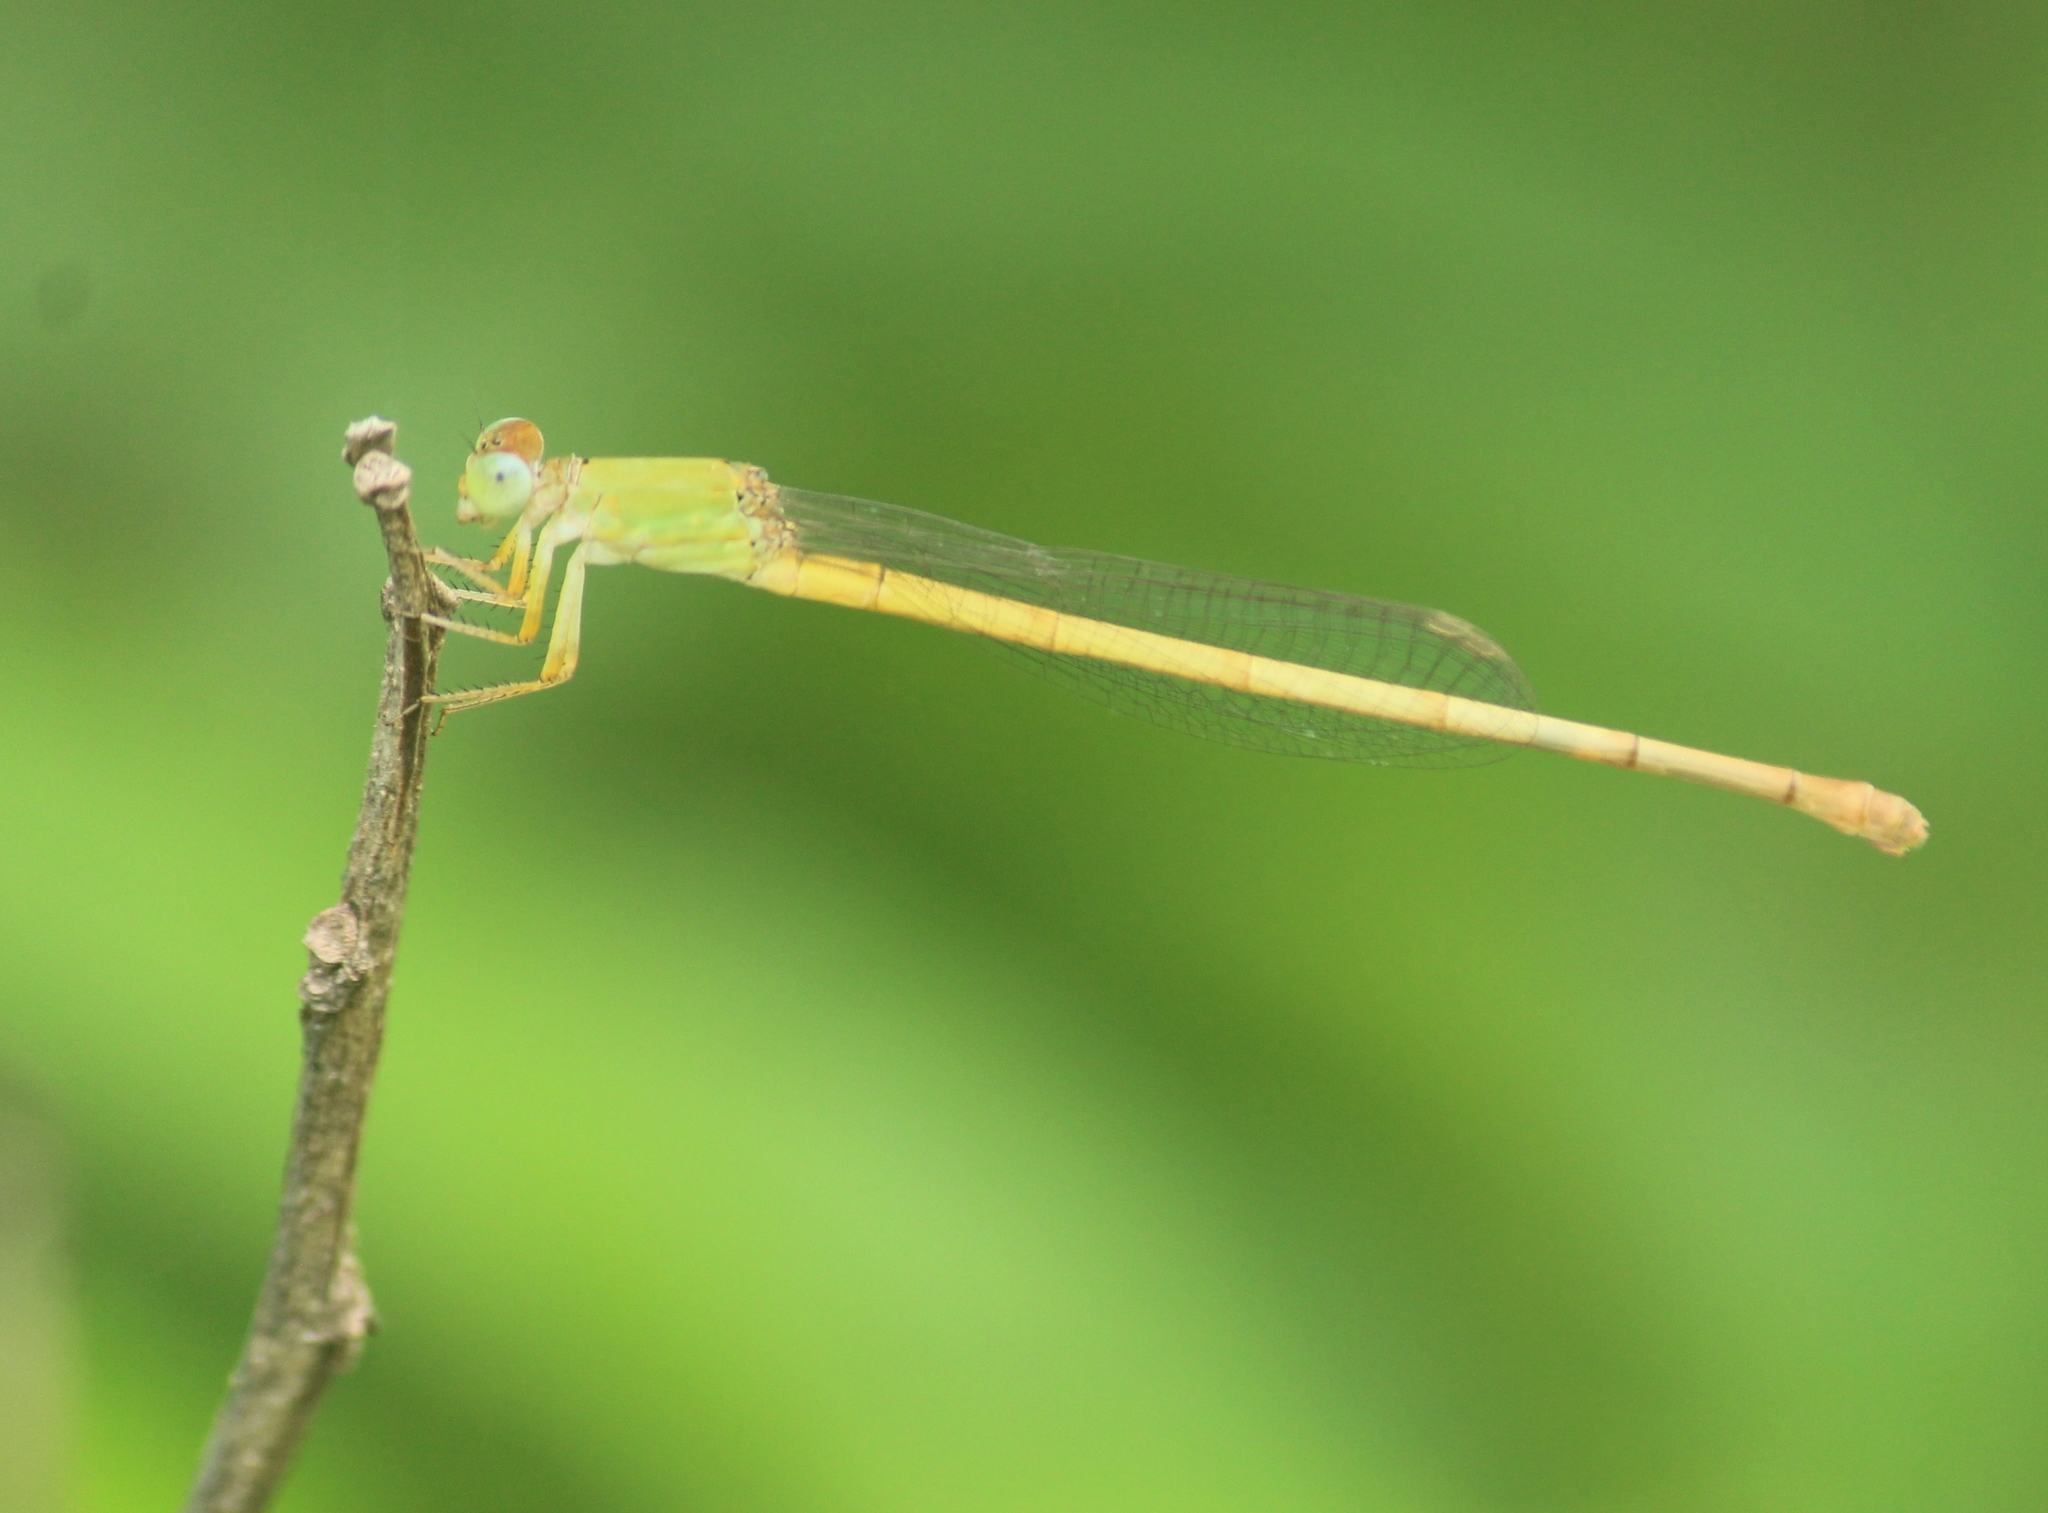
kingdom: Animalia
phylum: Arthropoda
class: Insecta
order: Odonata
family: Coenagrionidae
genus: Ceriagrion
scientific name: Ceriagrion coromandelianum
